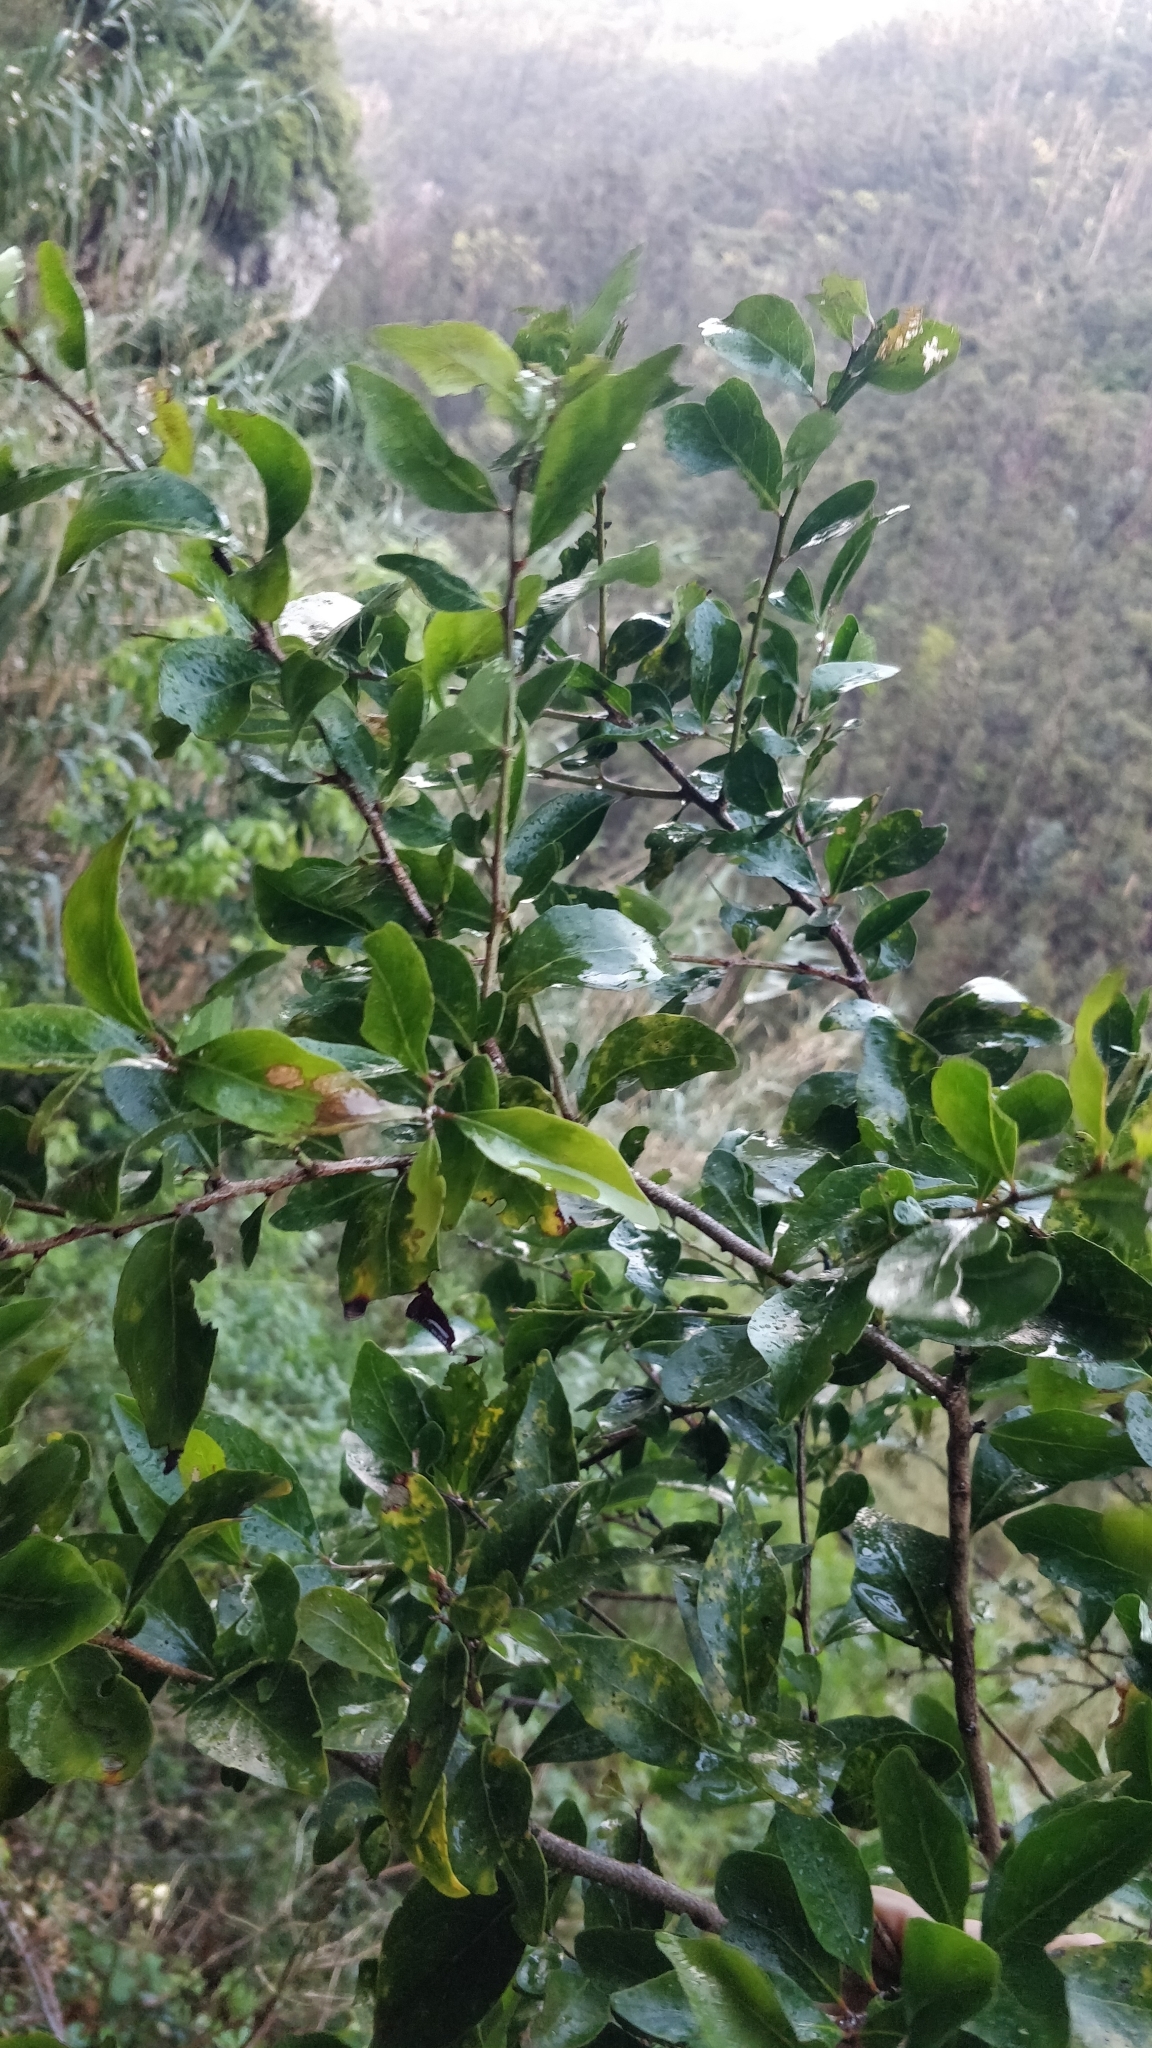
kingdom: Plantae
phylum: Tracheophyta
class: Magnoliopsida
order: Celastrales
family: Celastraceae
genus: Gymnosporia
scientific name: Gymnosporia dryandri
